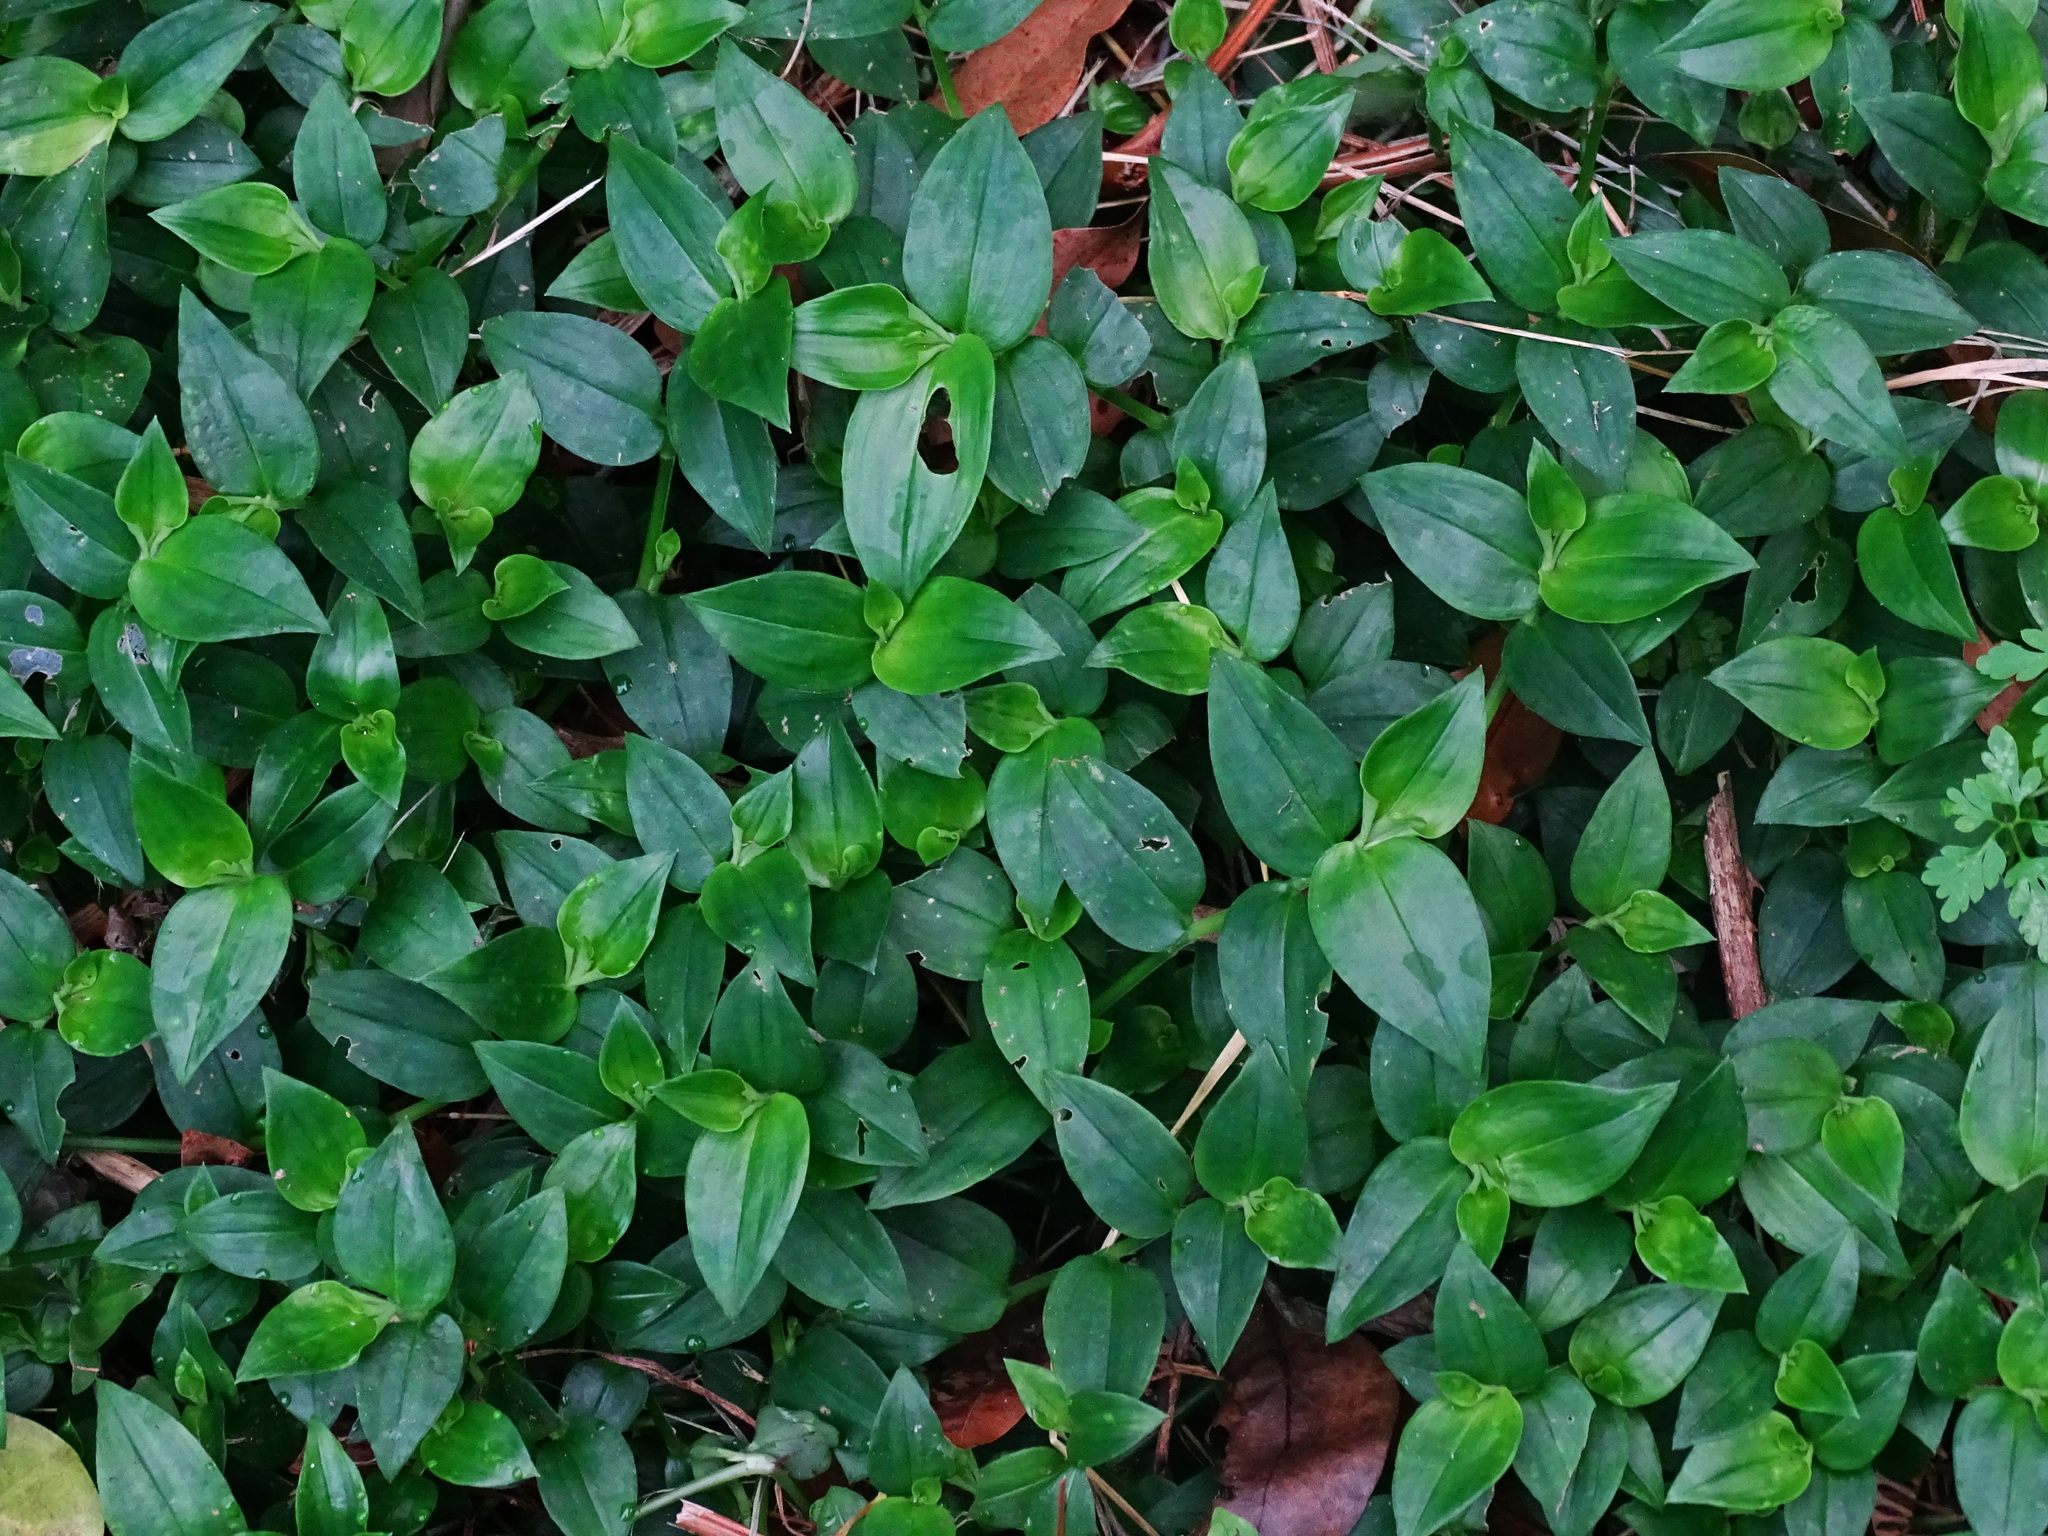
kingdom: Plantae
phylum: Tracheophyta
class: Liliopsida
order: Commelinales
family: Commelinaceae
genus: Tradescantia
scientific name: Tradescantia fluminensis
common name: Wandering-jew
